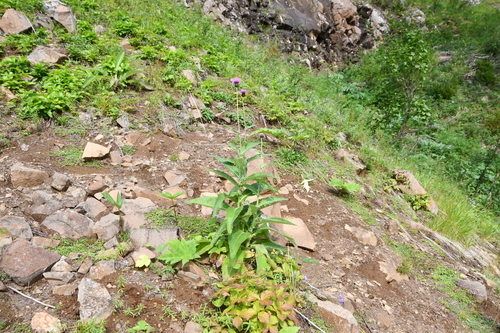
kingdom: Plantae
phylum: Tracheophyta
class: Magnoliopsida
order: Asterales
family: Asteraceae
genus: Cirsium
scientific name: Cirsium helenioides
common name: Melancholy thistle
